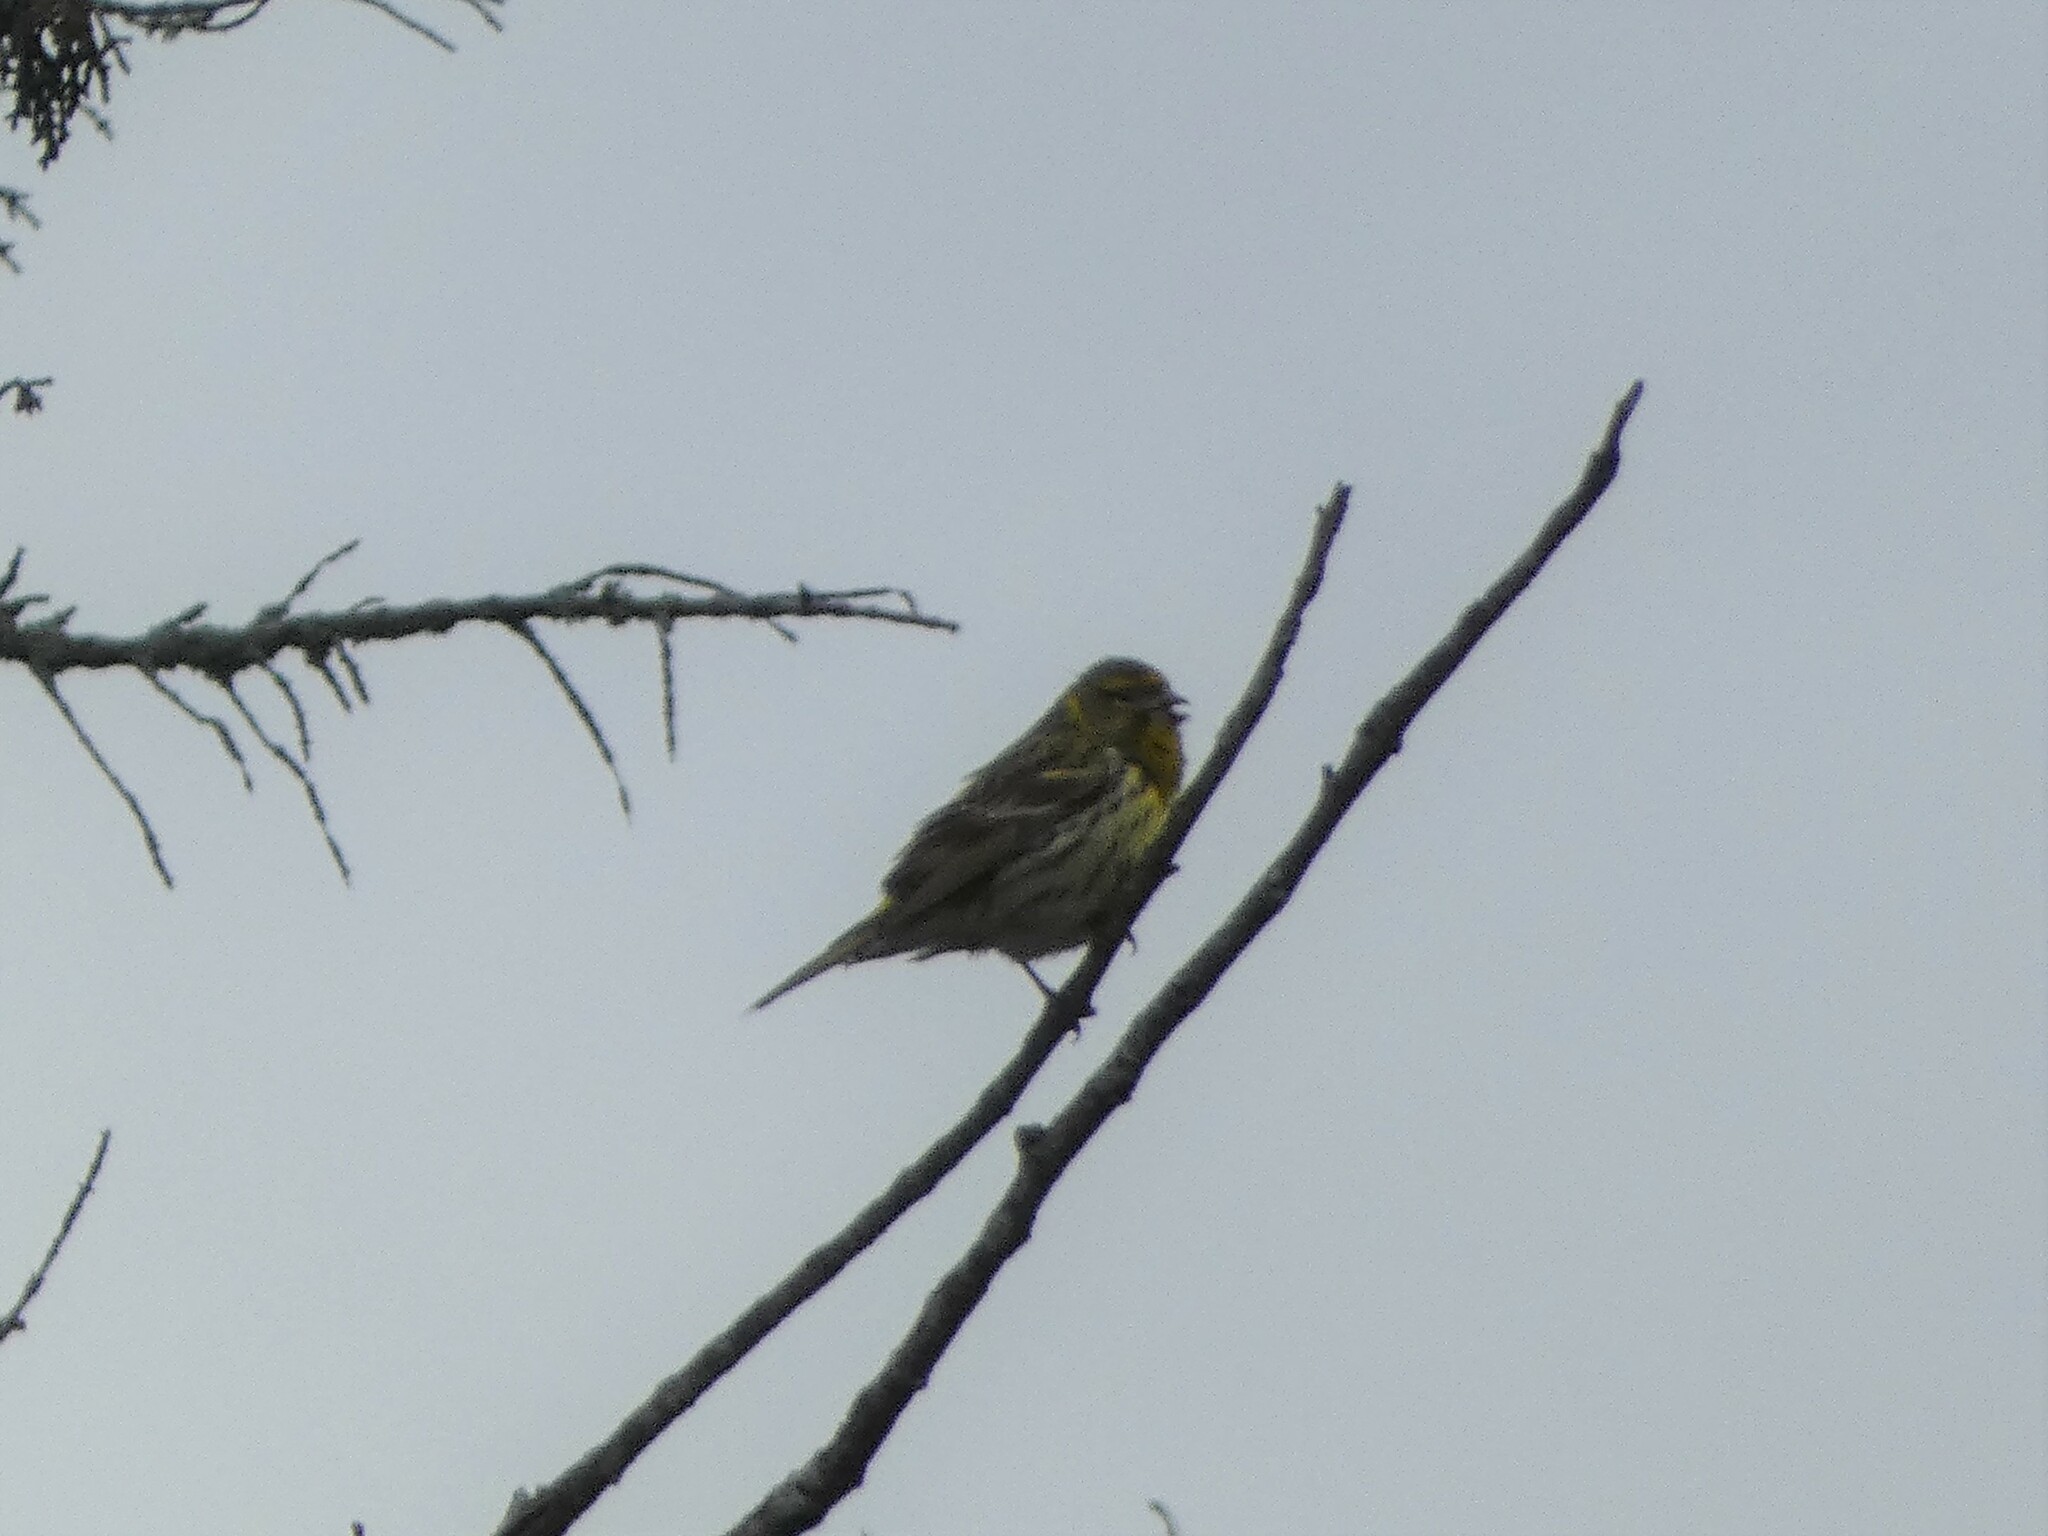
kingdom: Animalia
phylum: Chordata
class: Aves
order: Passeriformes
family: Fringillidae
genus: Serinus
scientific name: Serinus serinus
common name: European serin
